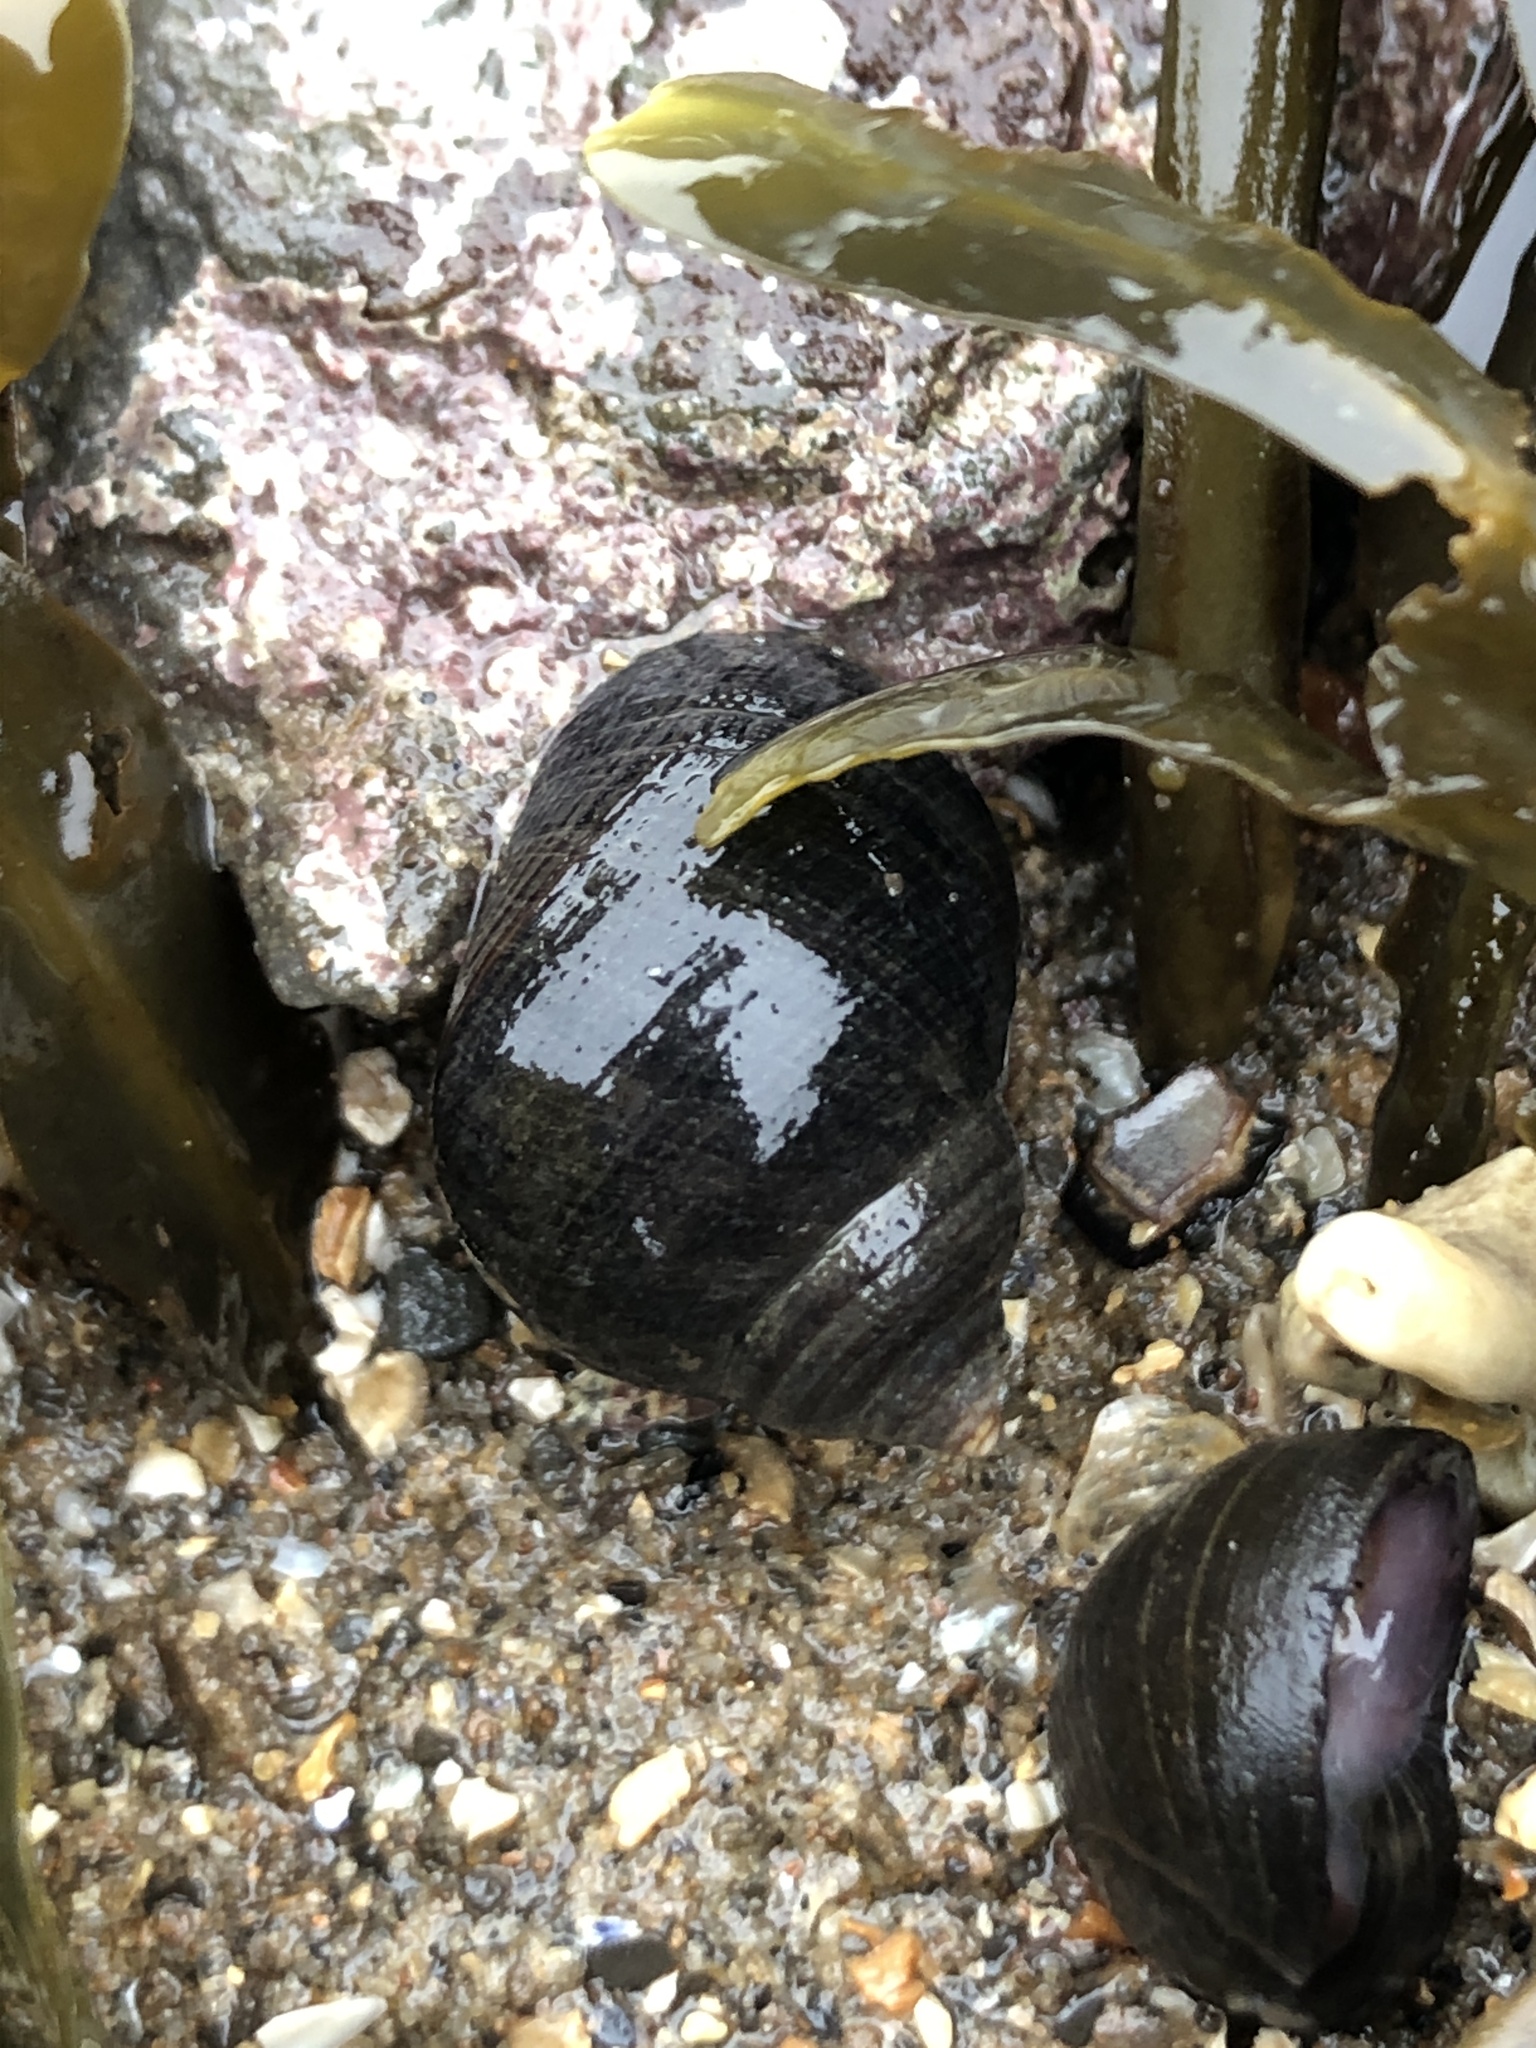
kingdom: Animalia
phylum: Mollusca
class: Gastropoda
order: Littorinimorpha
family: Littorinidae
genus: Littorina
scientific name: Littorina littorea
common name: Common periwinkle
